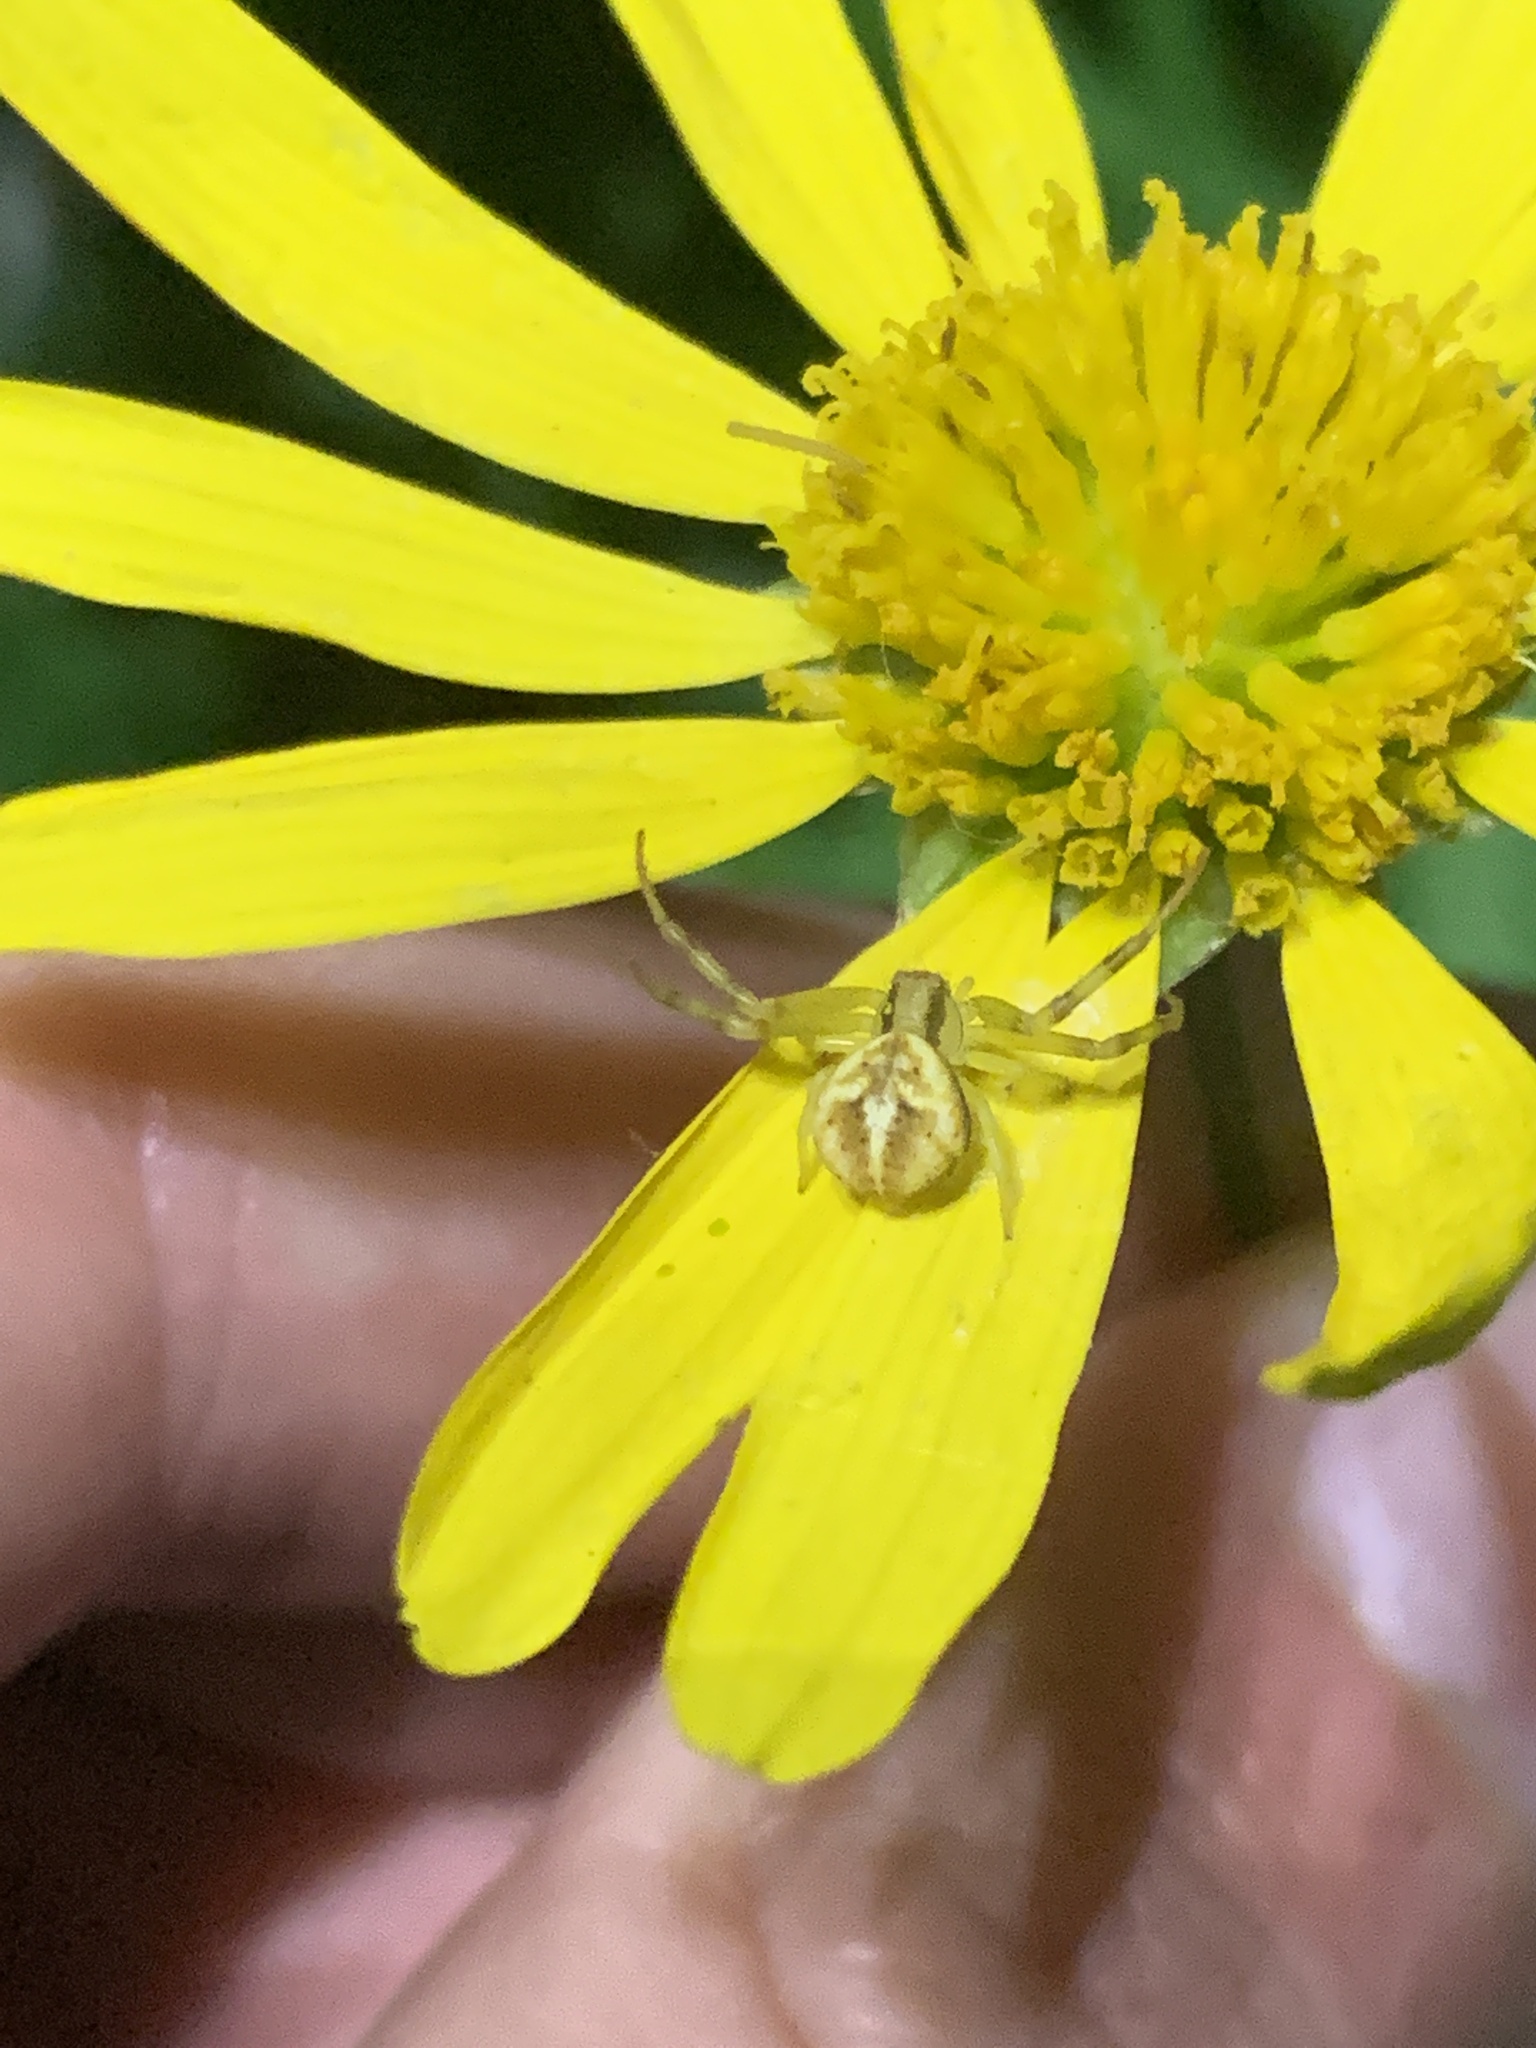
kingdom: Animalia
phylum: Arthropoda
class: Arachnida
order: Araneae
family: Thomisidae
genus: Misumenops
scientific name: Misumenops
